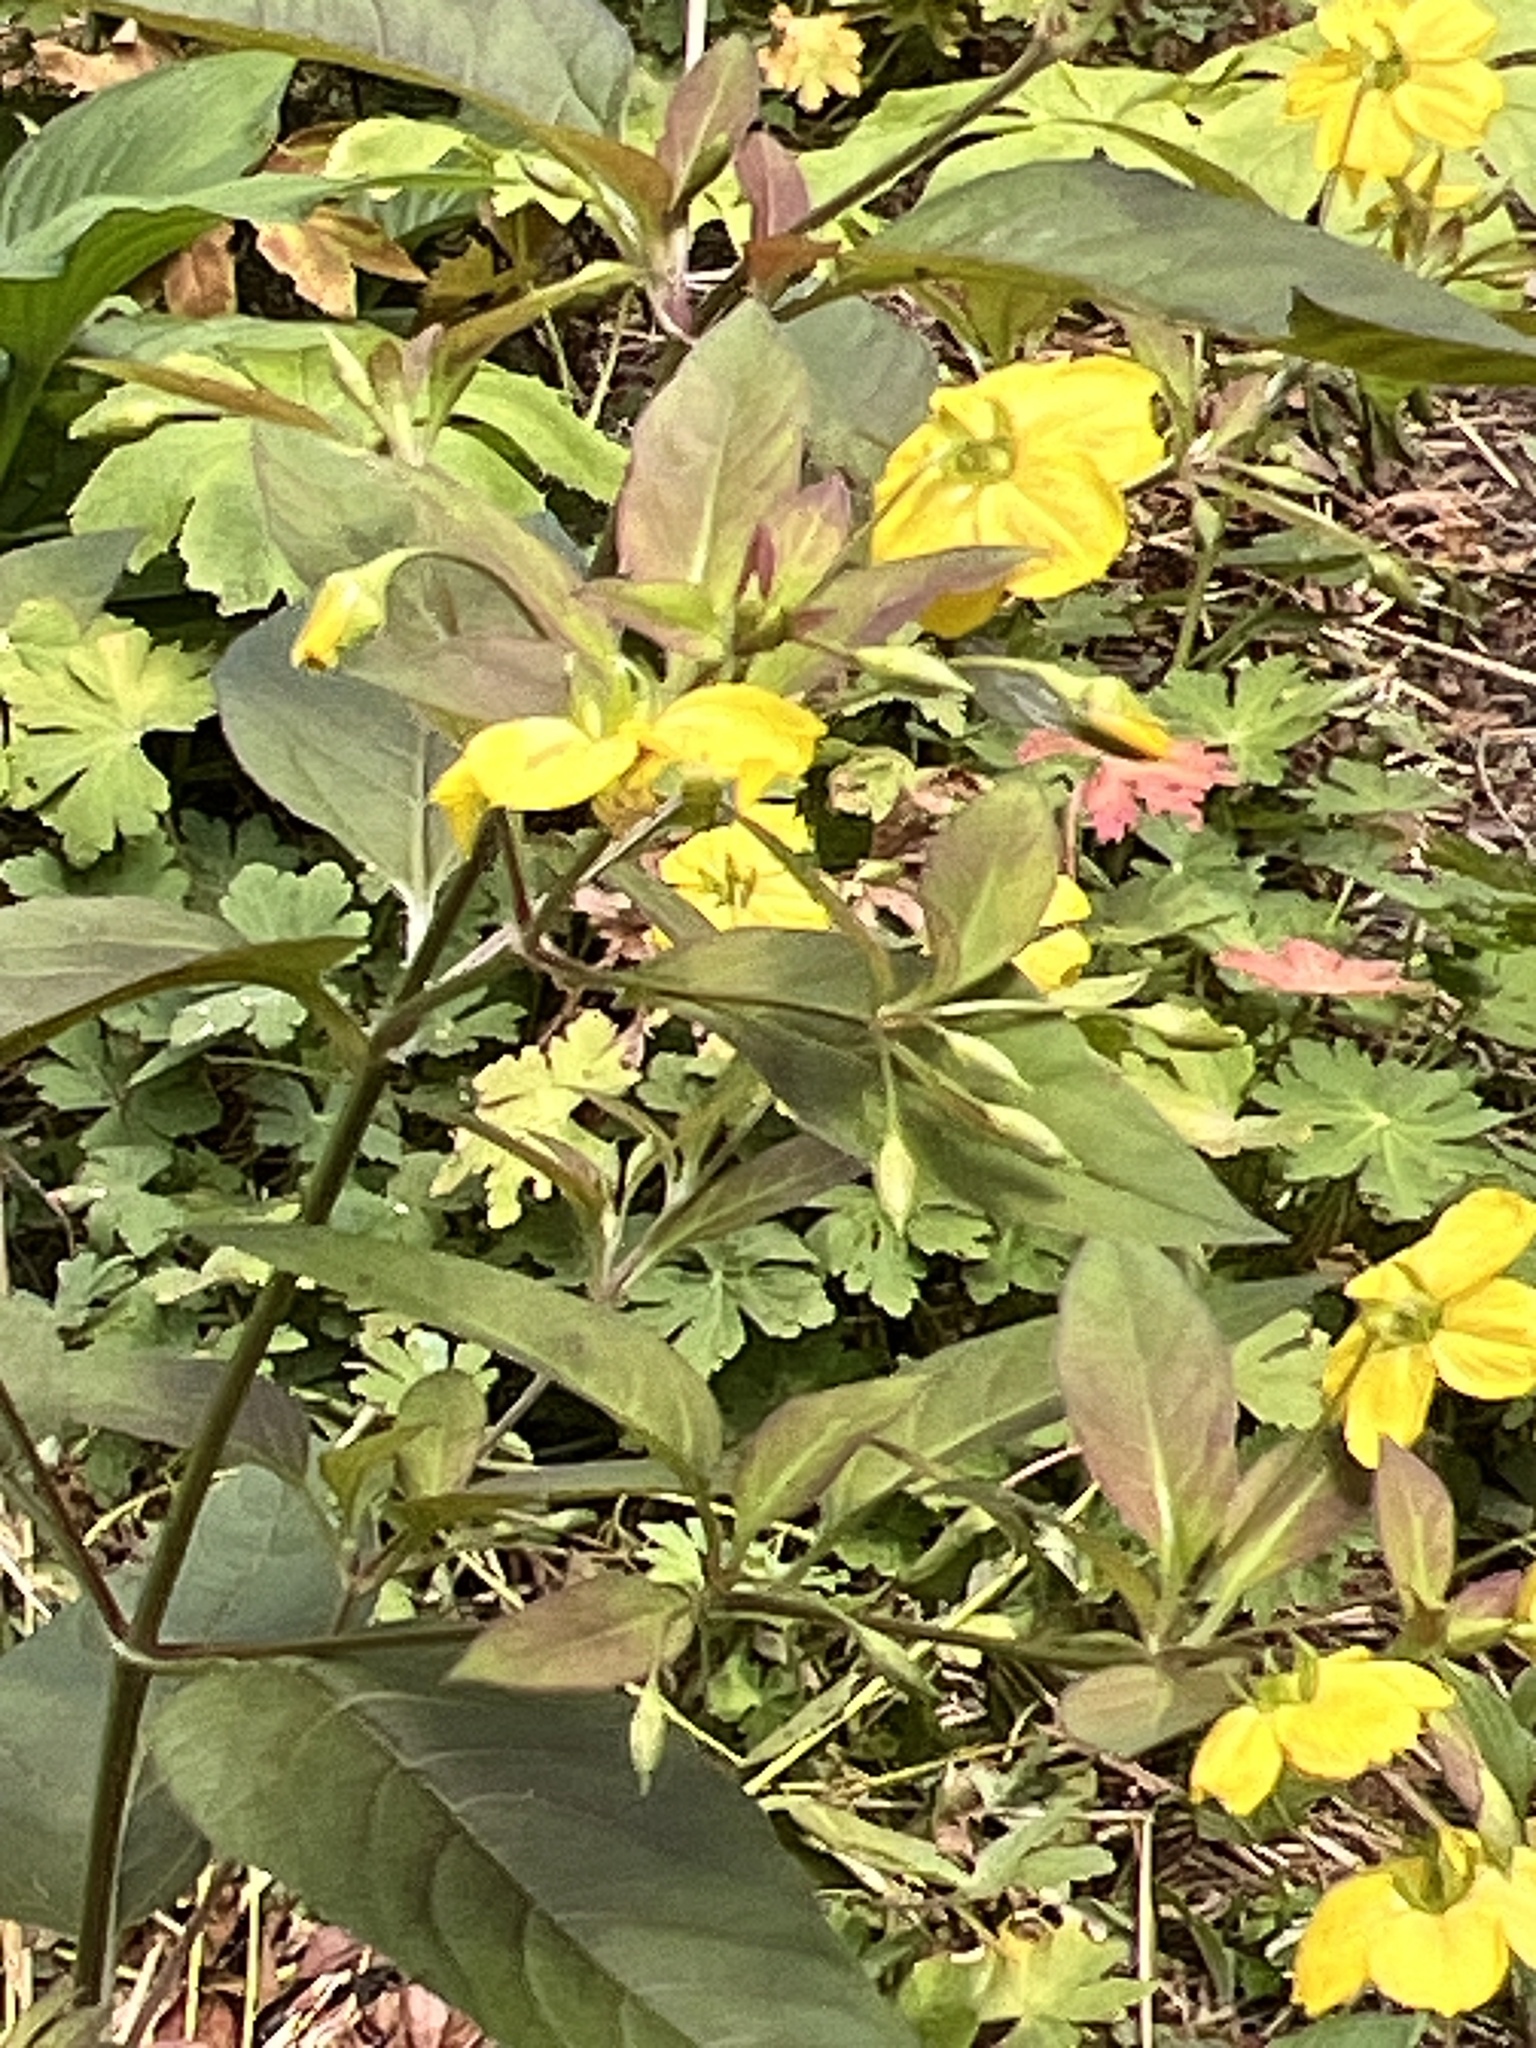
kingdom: Plantae
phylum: Tracheophyta
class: Magnoliopsida
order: Ericales
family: Primulaceae
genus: Lysimachia
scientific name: Lysimachia ciliata
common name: Fringed loosestrife
